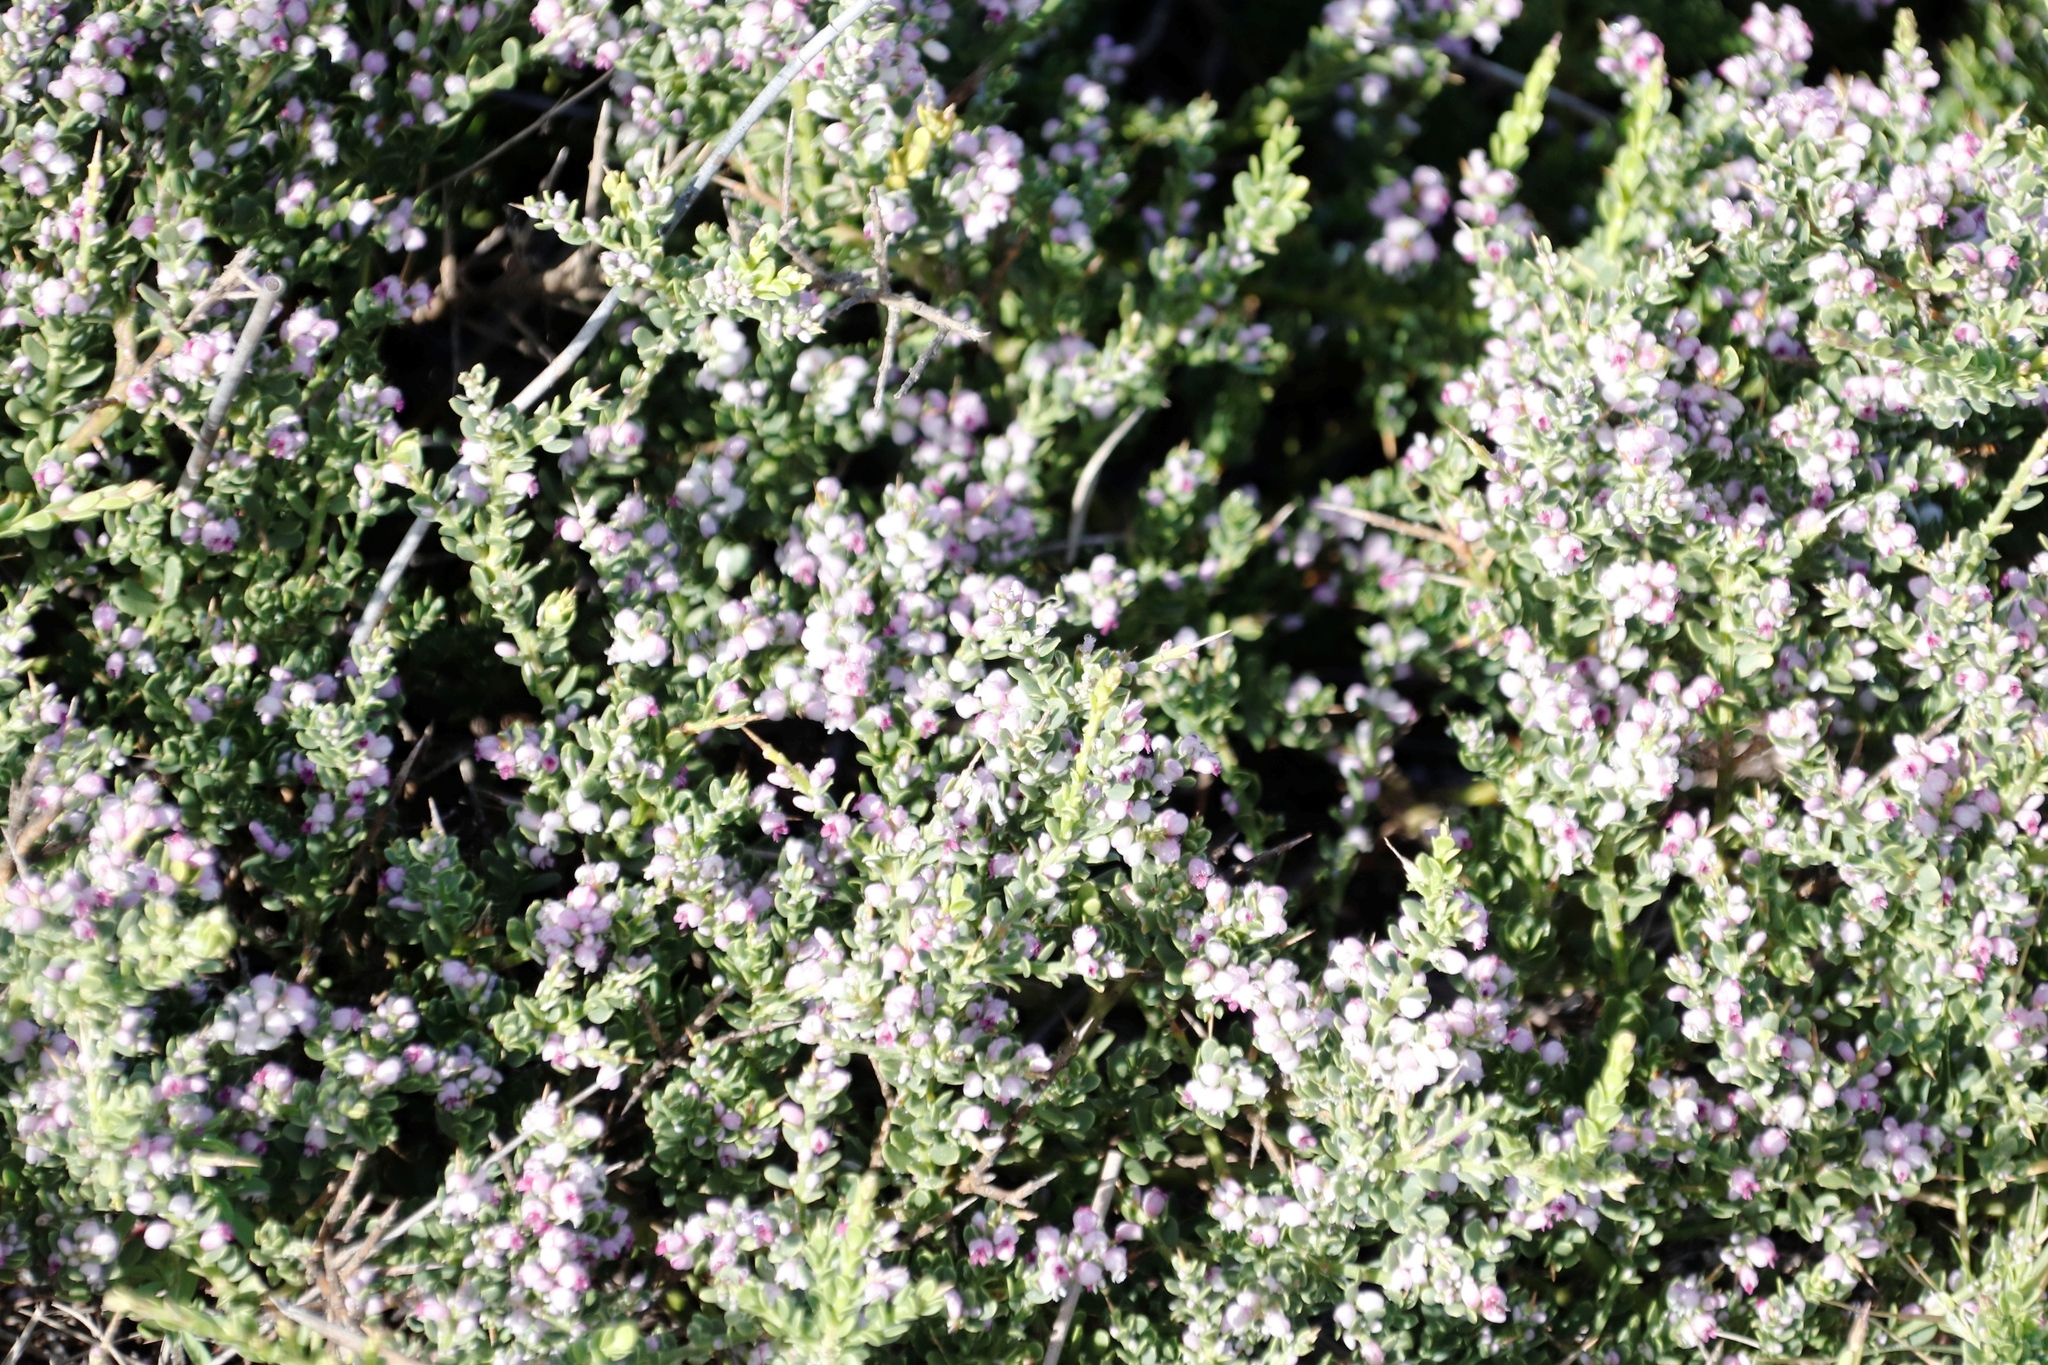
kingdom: Plantae
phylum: Tracheophyta
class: Magnoliopsida
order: Fabales
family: Polygalaceae
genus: Muraltia
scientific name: Muraltia spinosa
